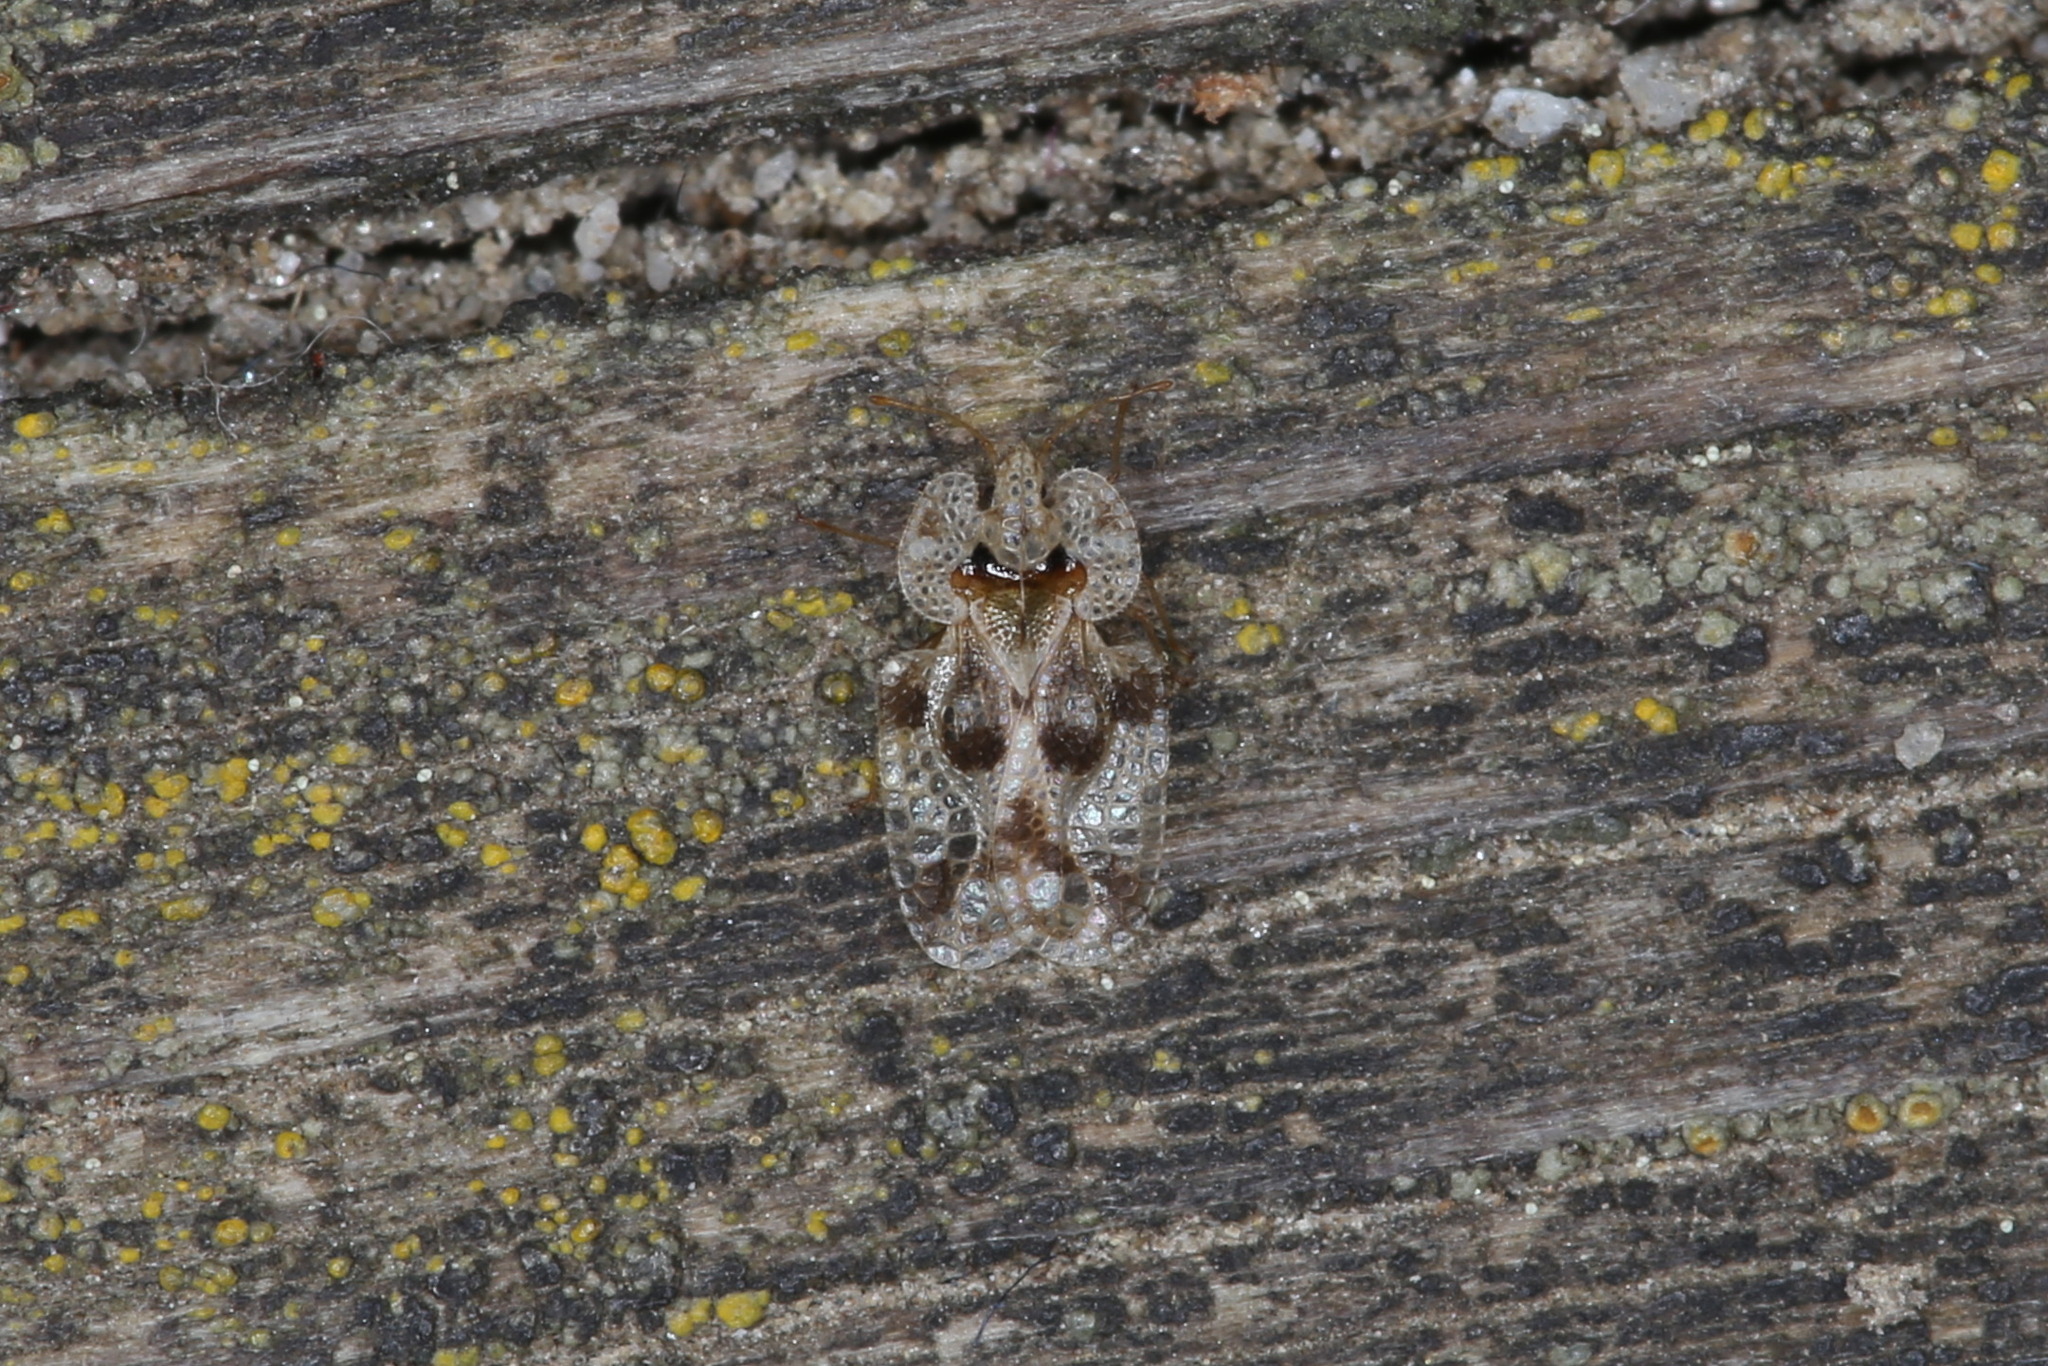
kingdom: Animalia
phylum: Arthropoda
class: Insecta
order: Hemiptera
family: Tingidae
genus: Corythucha
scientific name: Corythucha arcuata
